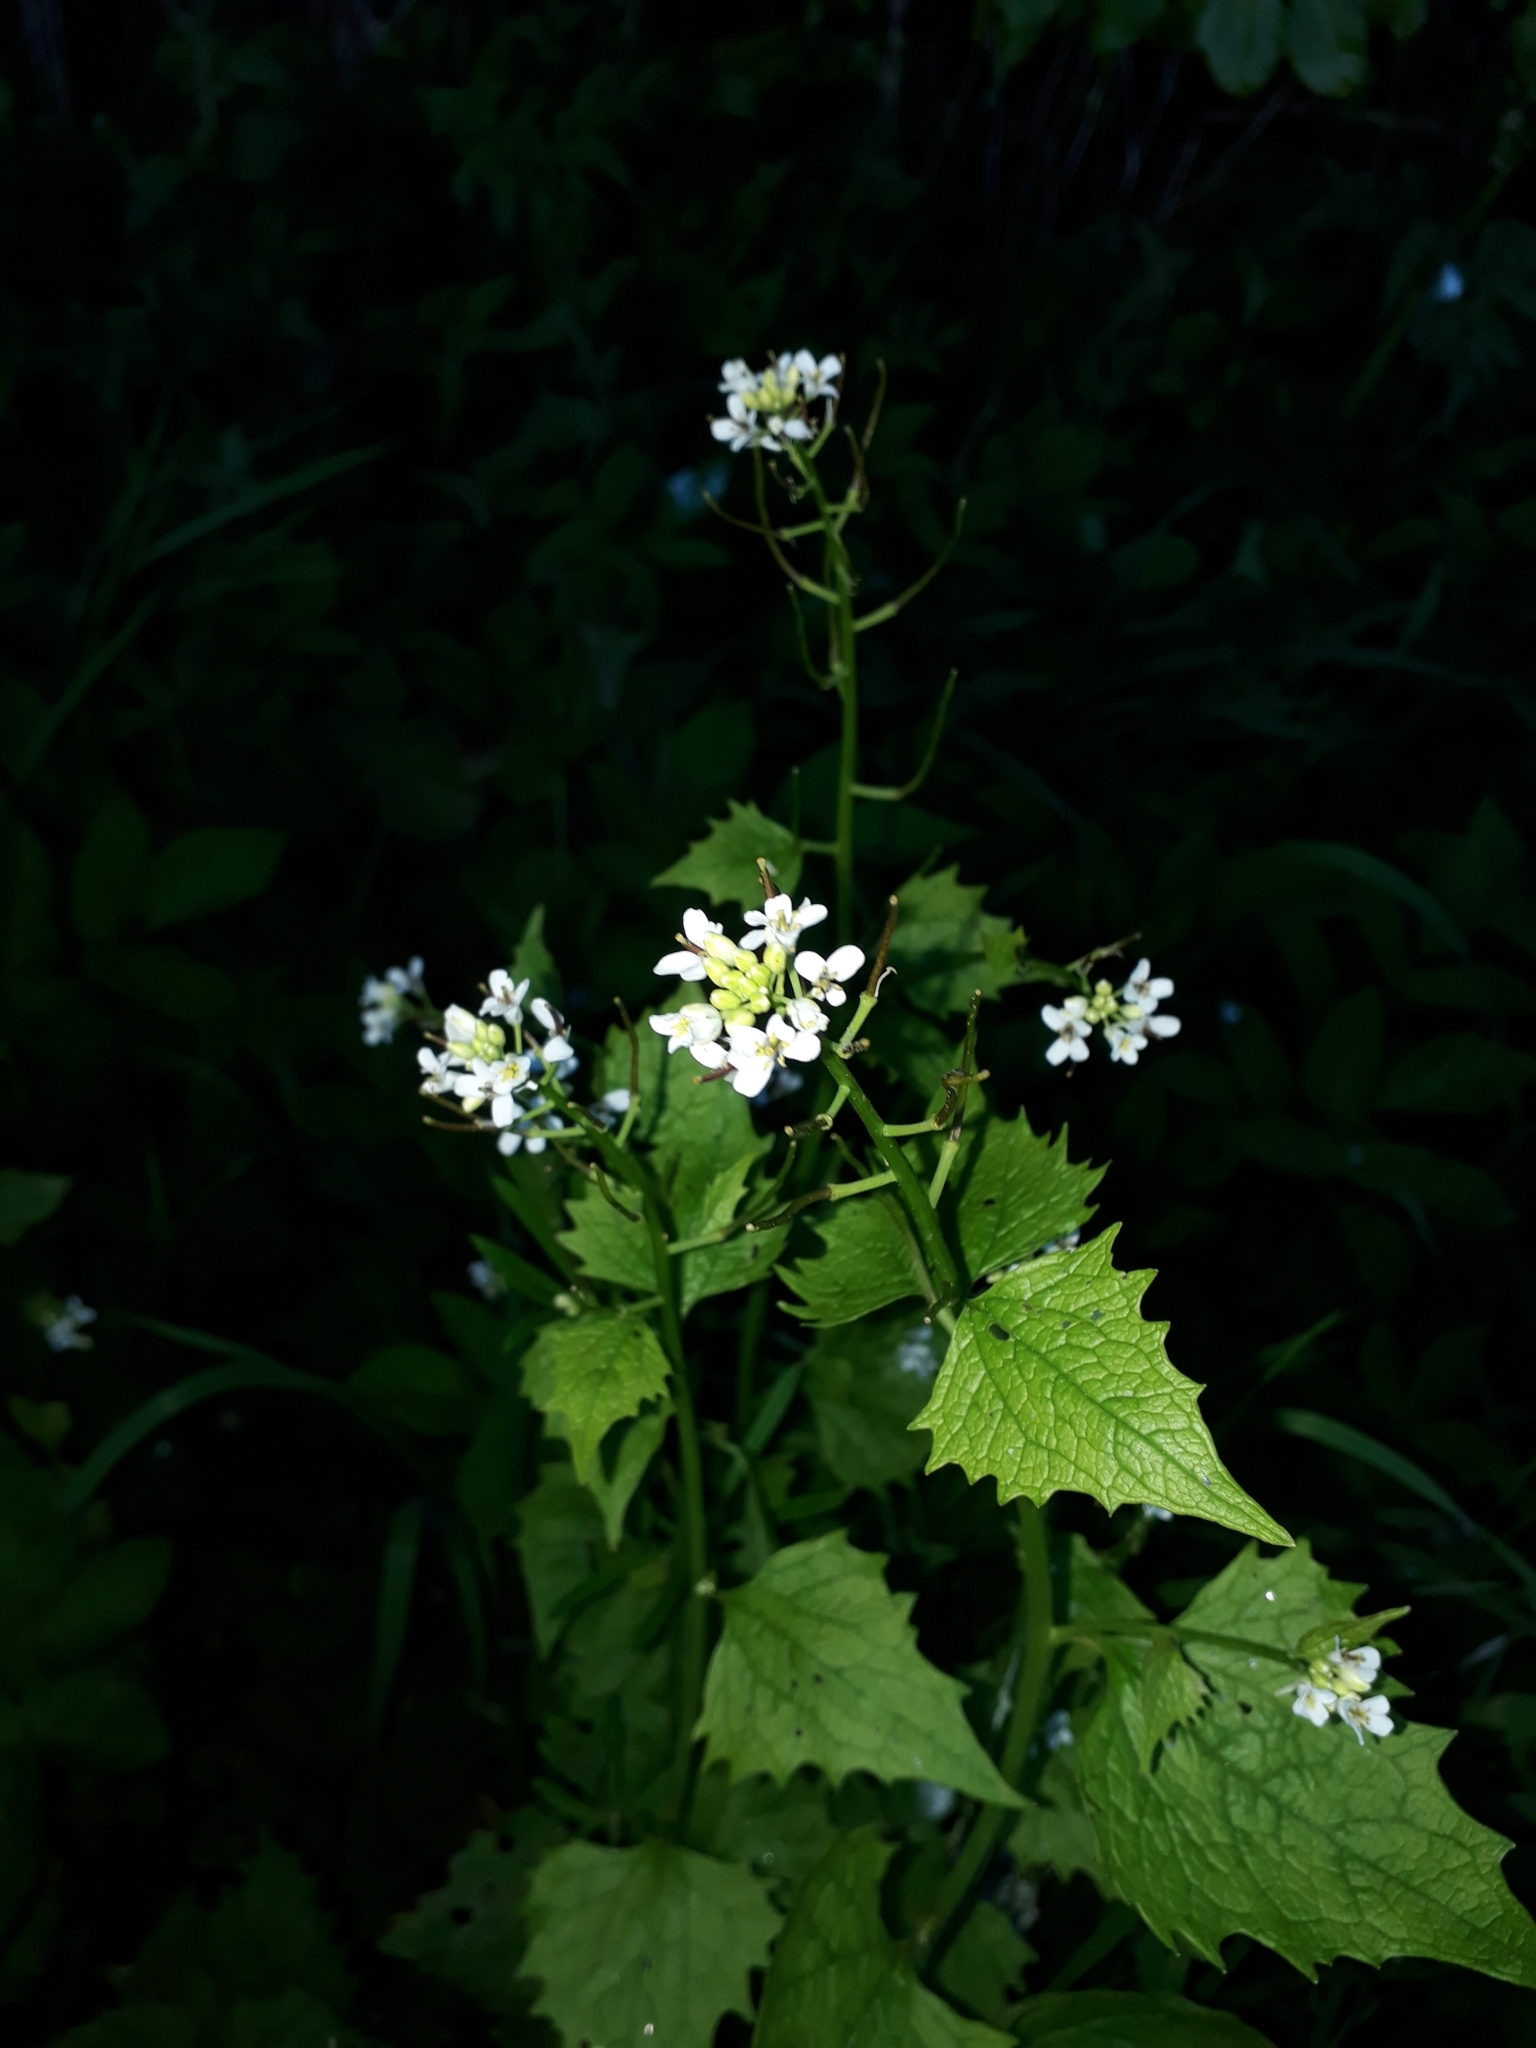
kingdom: Plantae
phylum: Tracheophyta
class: Magnoliopsida
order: Brassicales
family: Brassicaceae
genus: Alliaria
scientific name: Alliaria petiolata
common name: Garlic mustard
